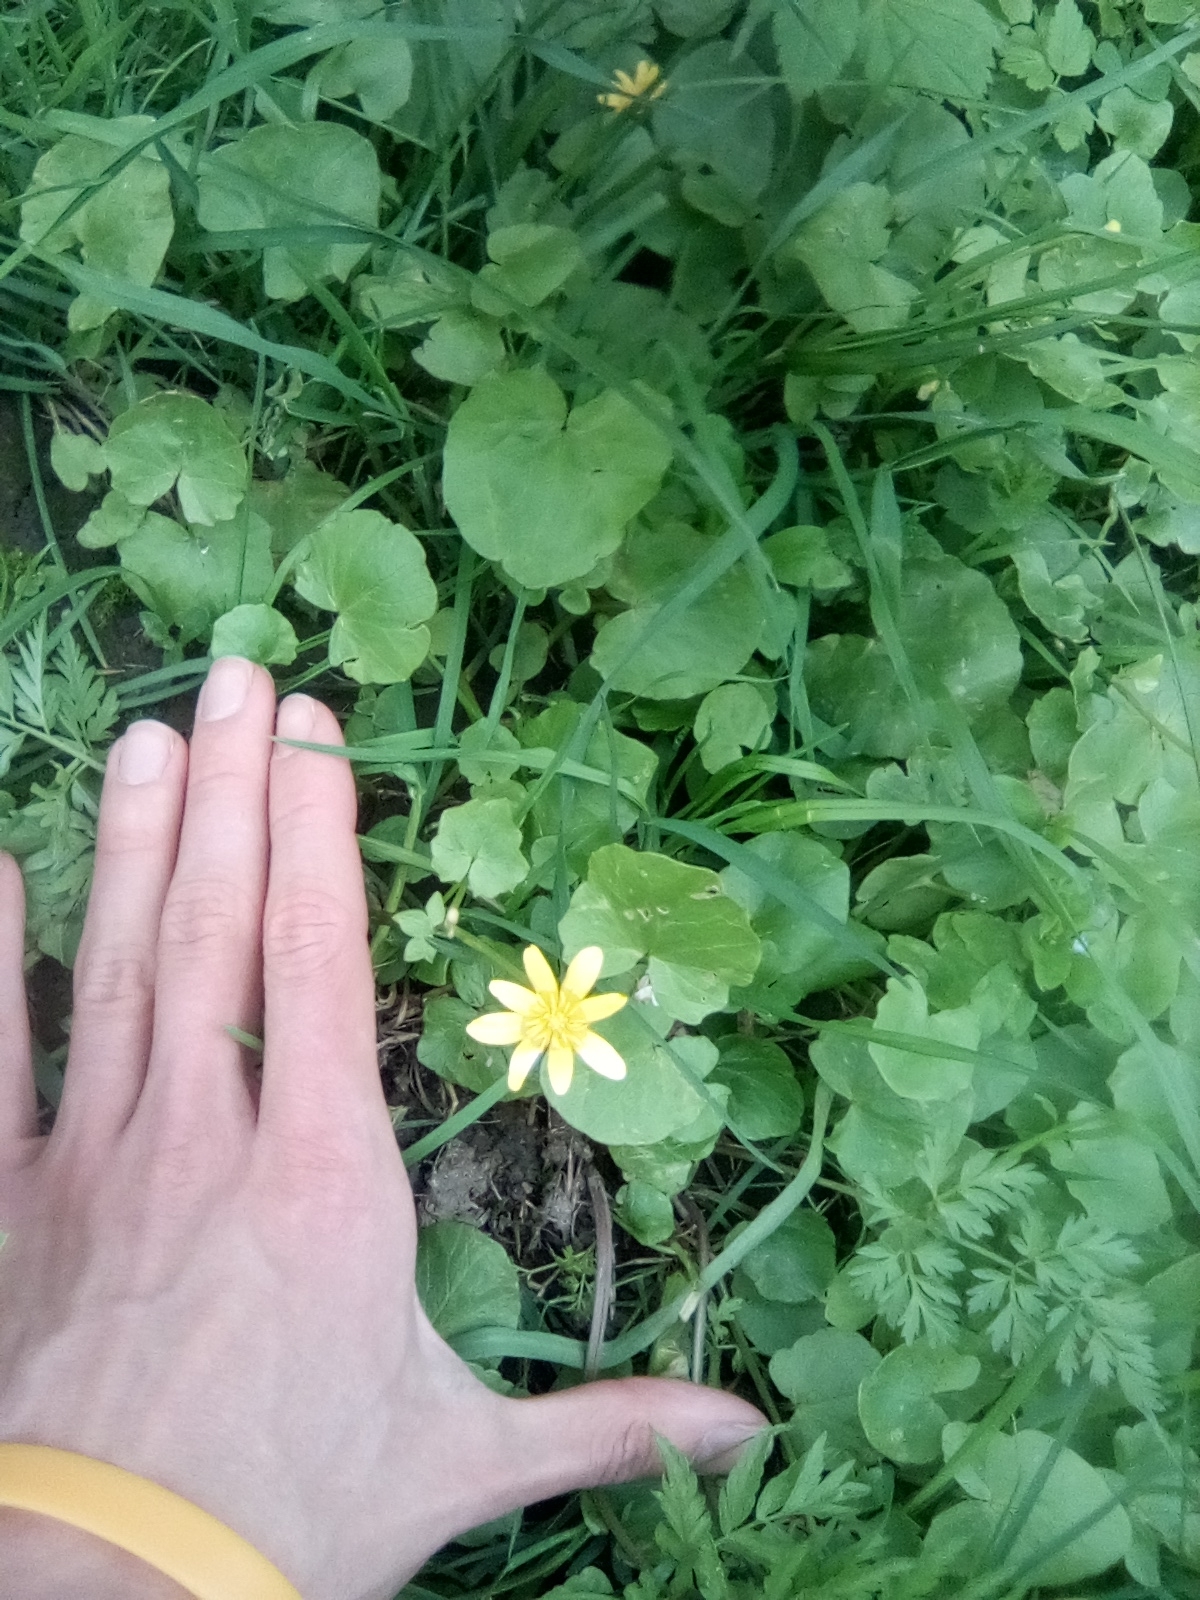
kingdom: Plantae
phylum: Tracheophyta
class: Magnoliopsida
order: Ranunculales
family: Ranunculaceae
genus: Ficaria
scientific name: Ficaria verna
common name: Lesser celandine
